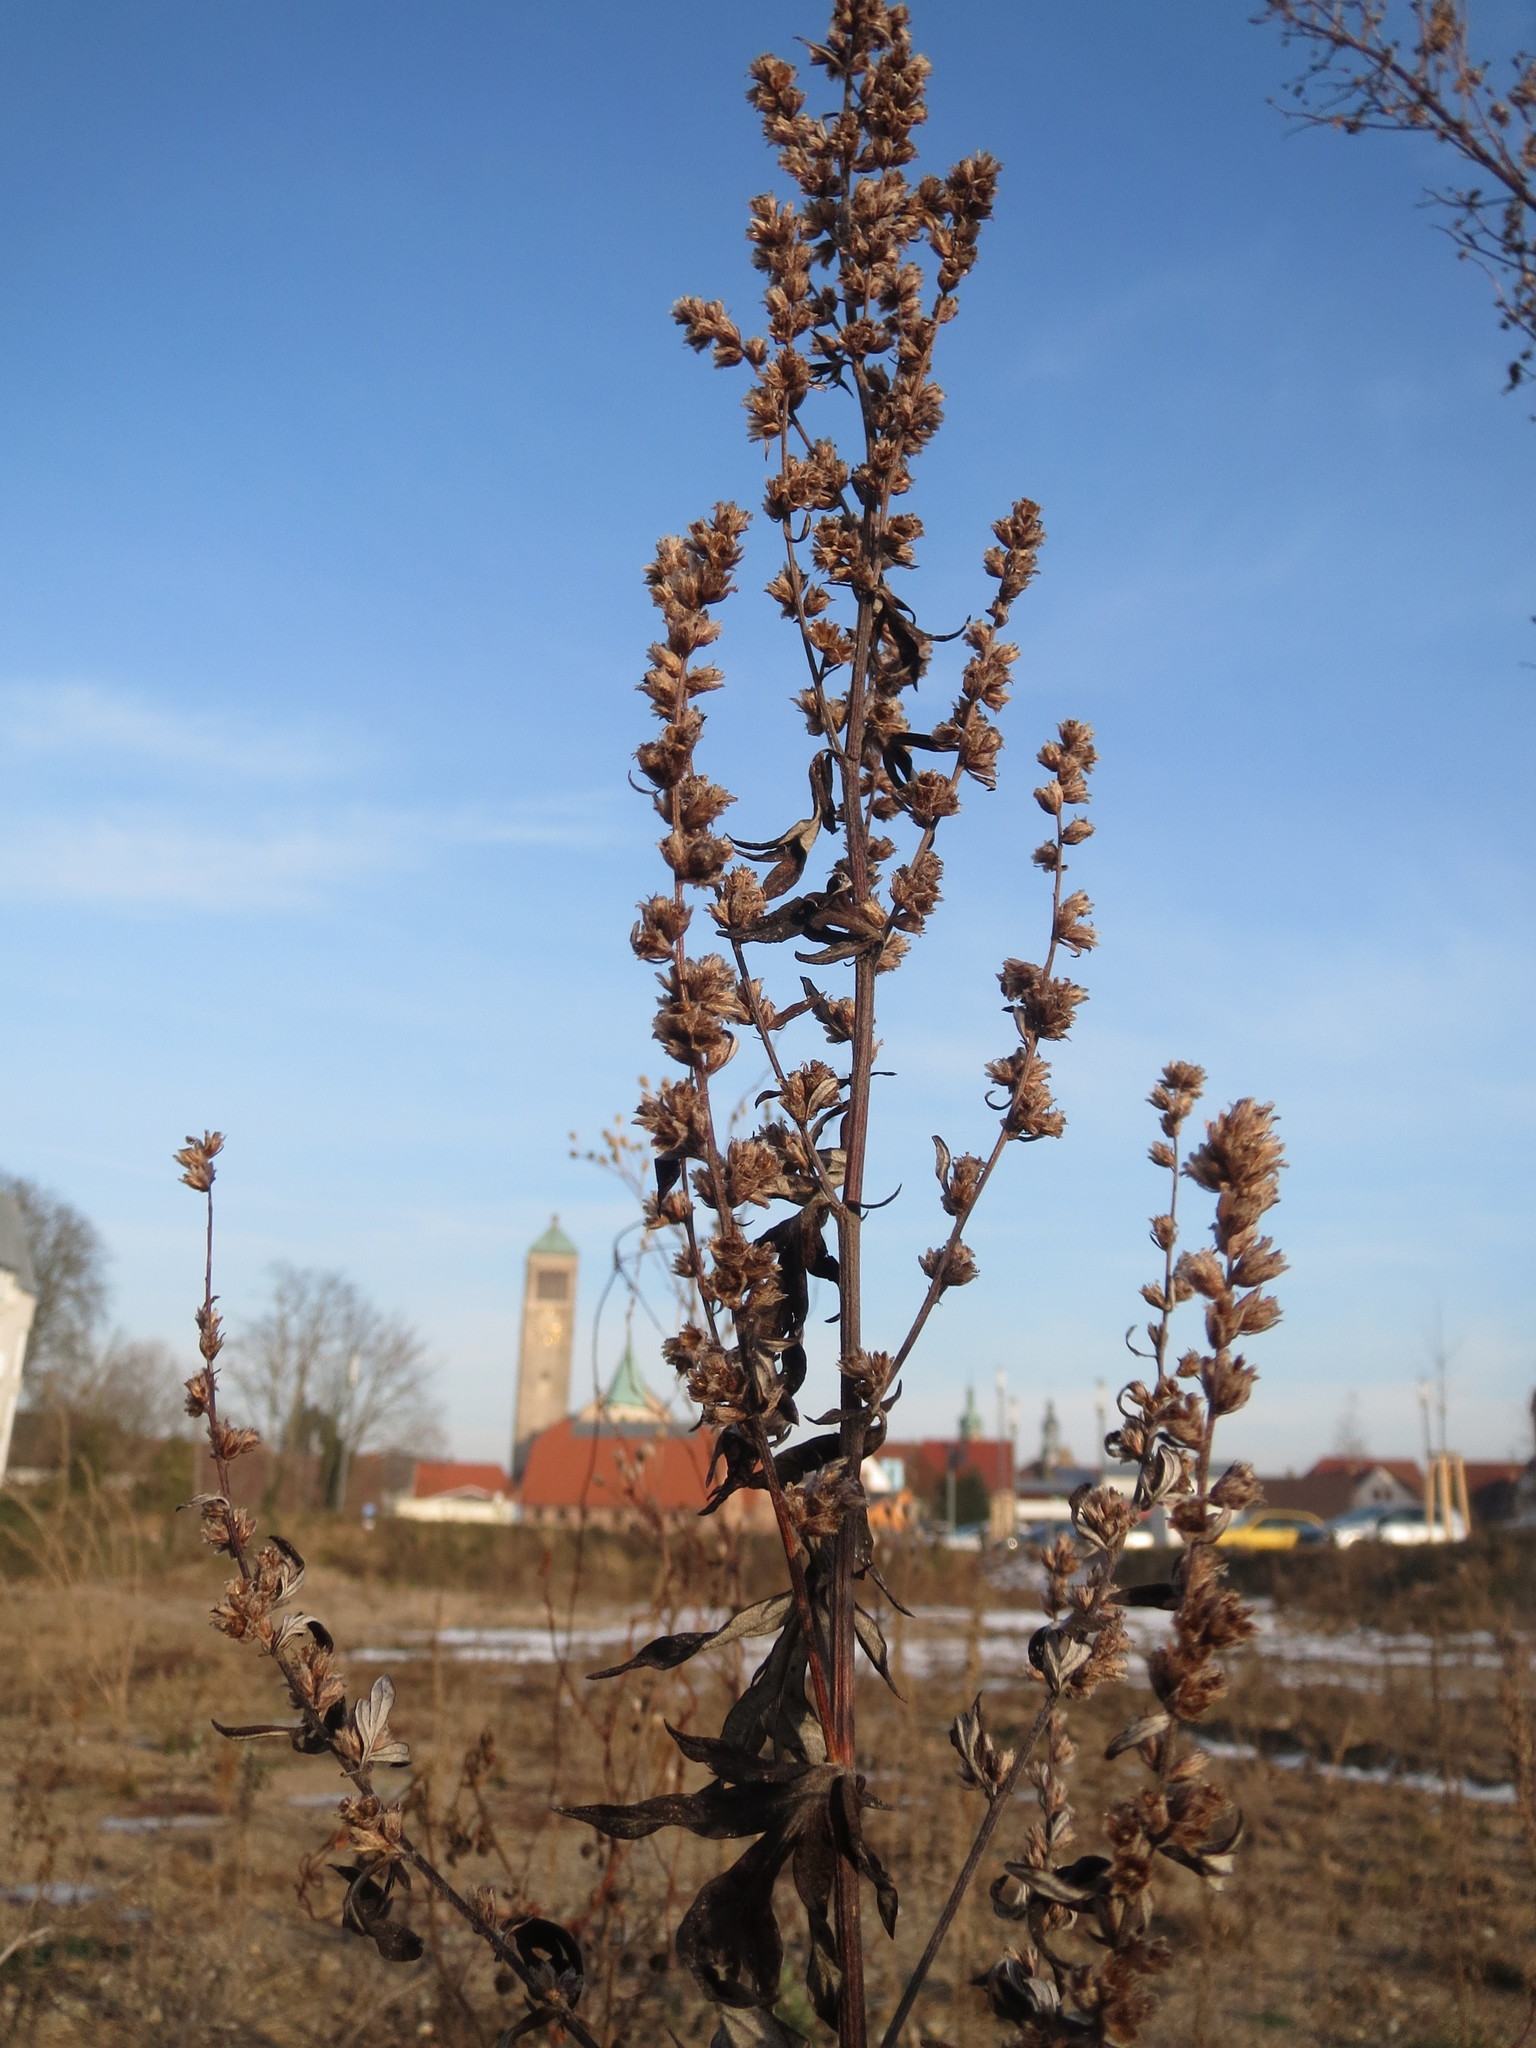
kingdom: Plantae
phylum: Tracheophyta
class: Magnoliopsida
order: Asterales
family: Asteraceae
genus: Artemisia
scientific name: Artemisia vulgaris
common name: Mugwort
